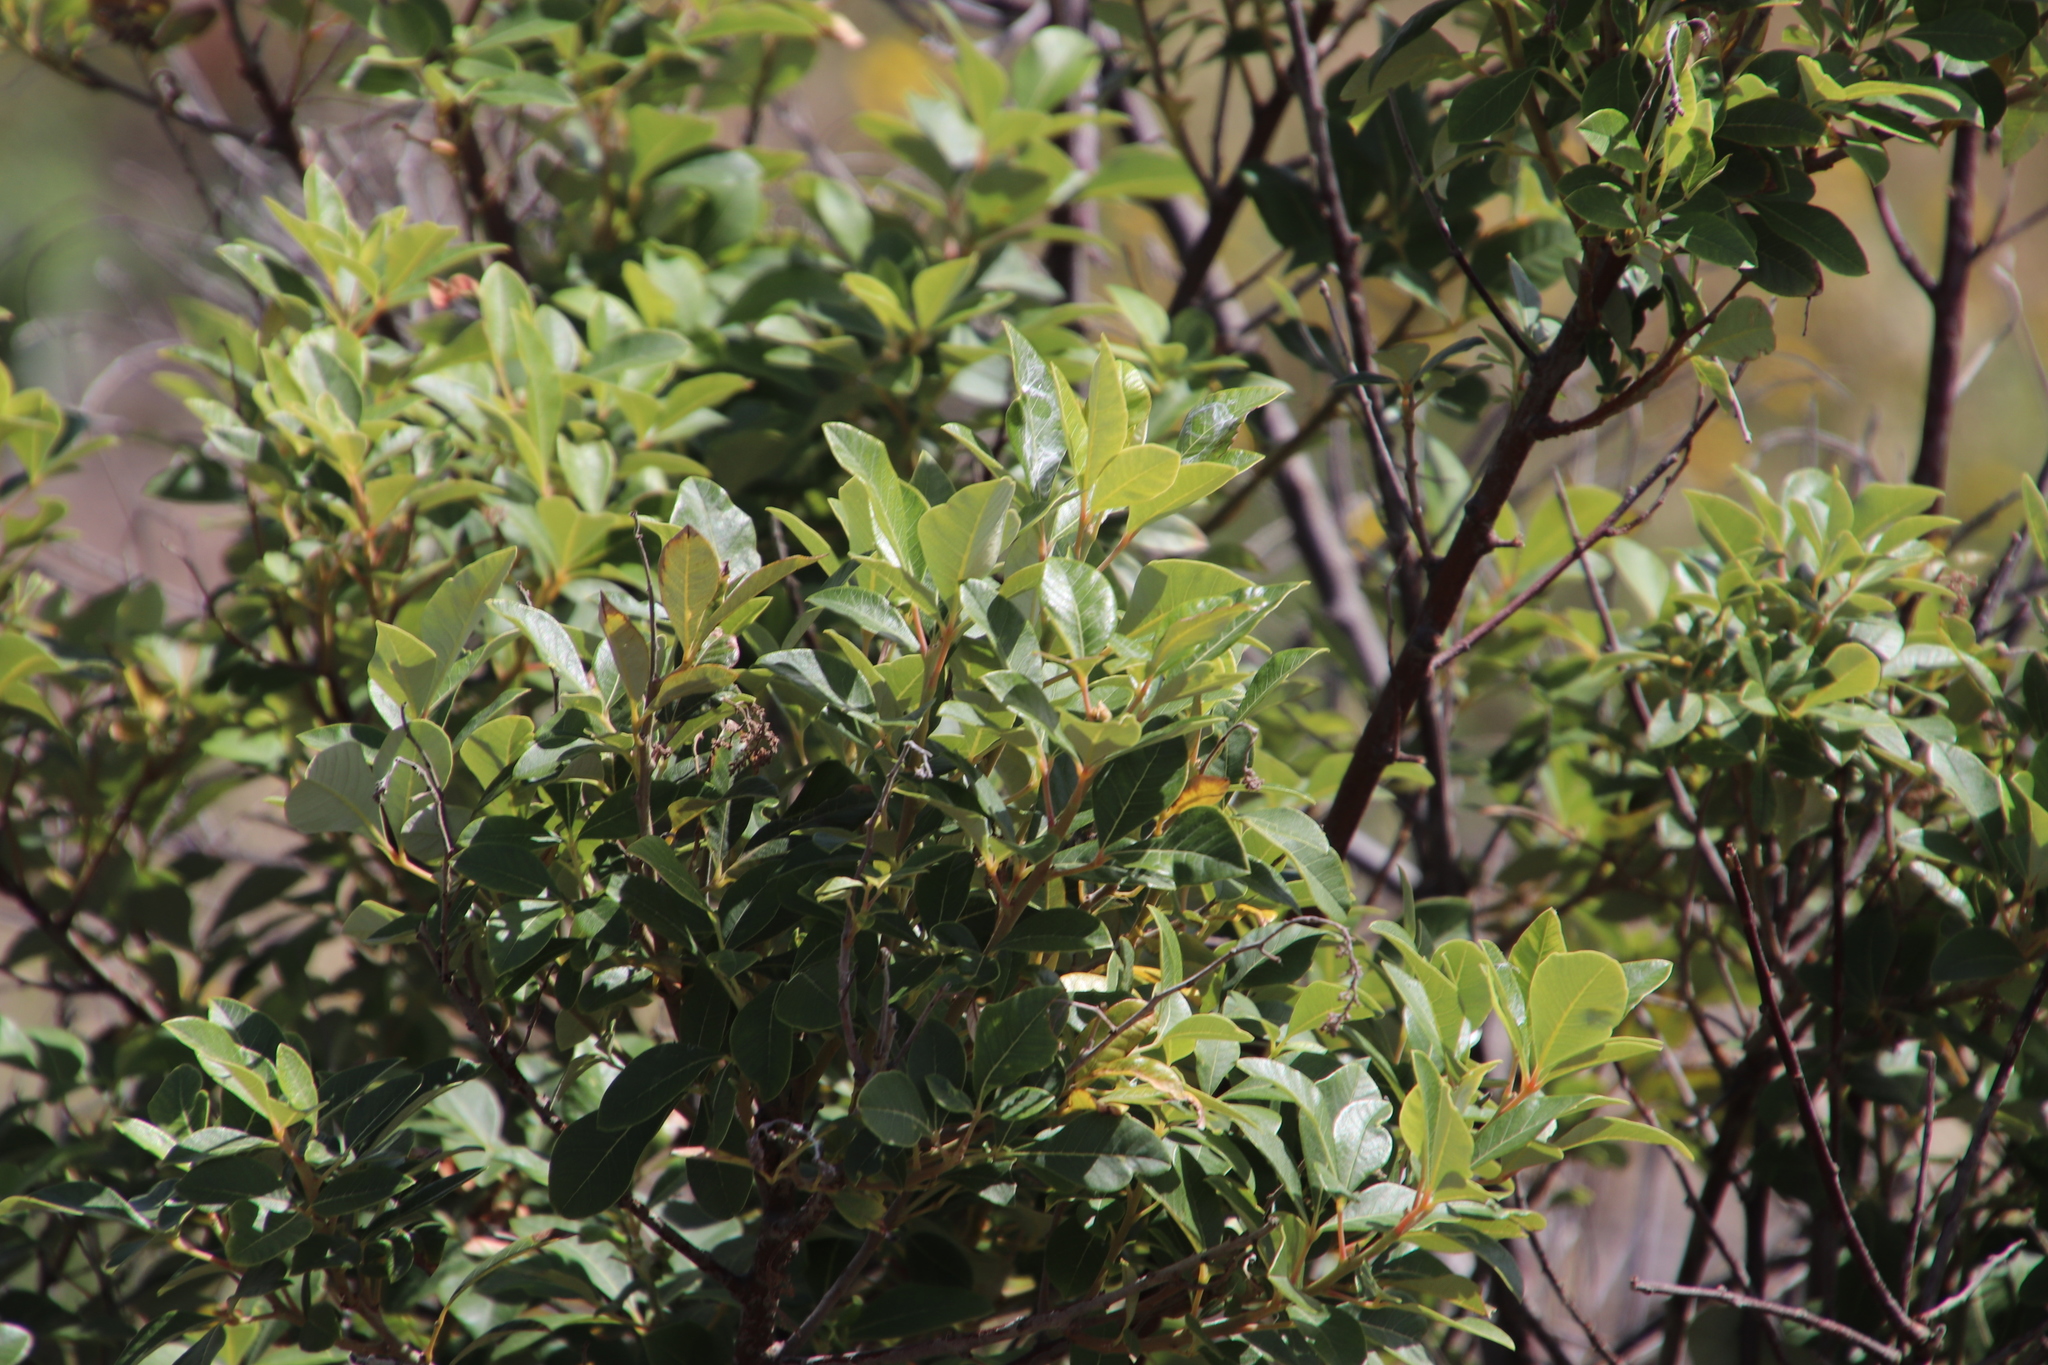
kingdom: Plantae
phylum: Tracheophyta
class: Magnoliopsida
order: Sapindales
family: Anacardiaceae
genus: Searsia
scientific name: Searsia tomentosa
